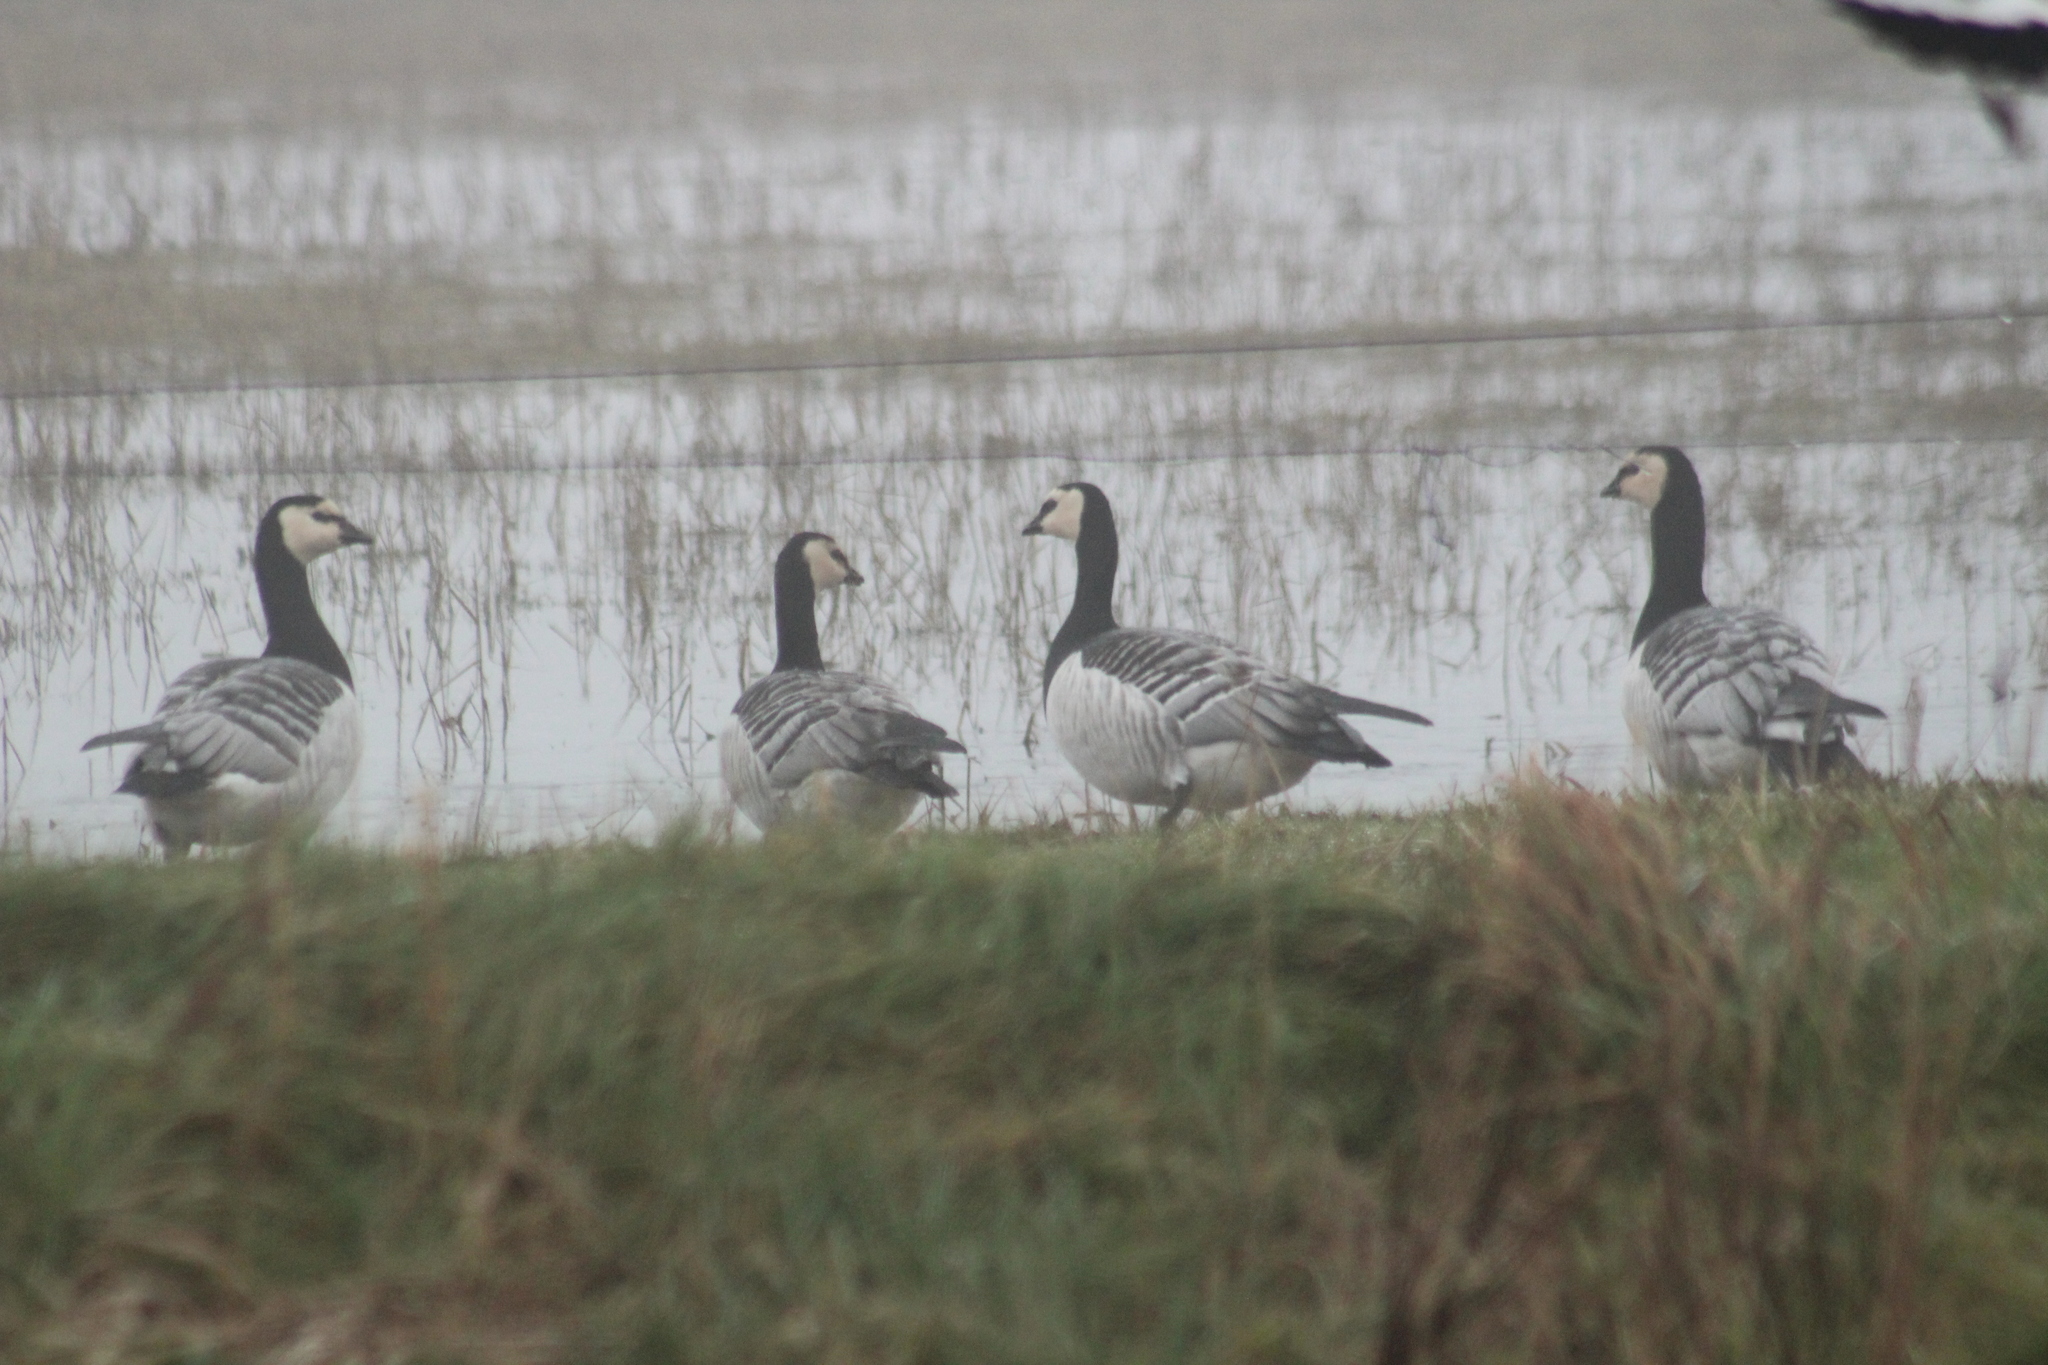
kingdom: Animalia
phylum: Chordata
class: Aves
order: Anseriformes
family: Anatidae
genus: Branta
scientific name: Branta leucopsis
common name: Barnacle goose
